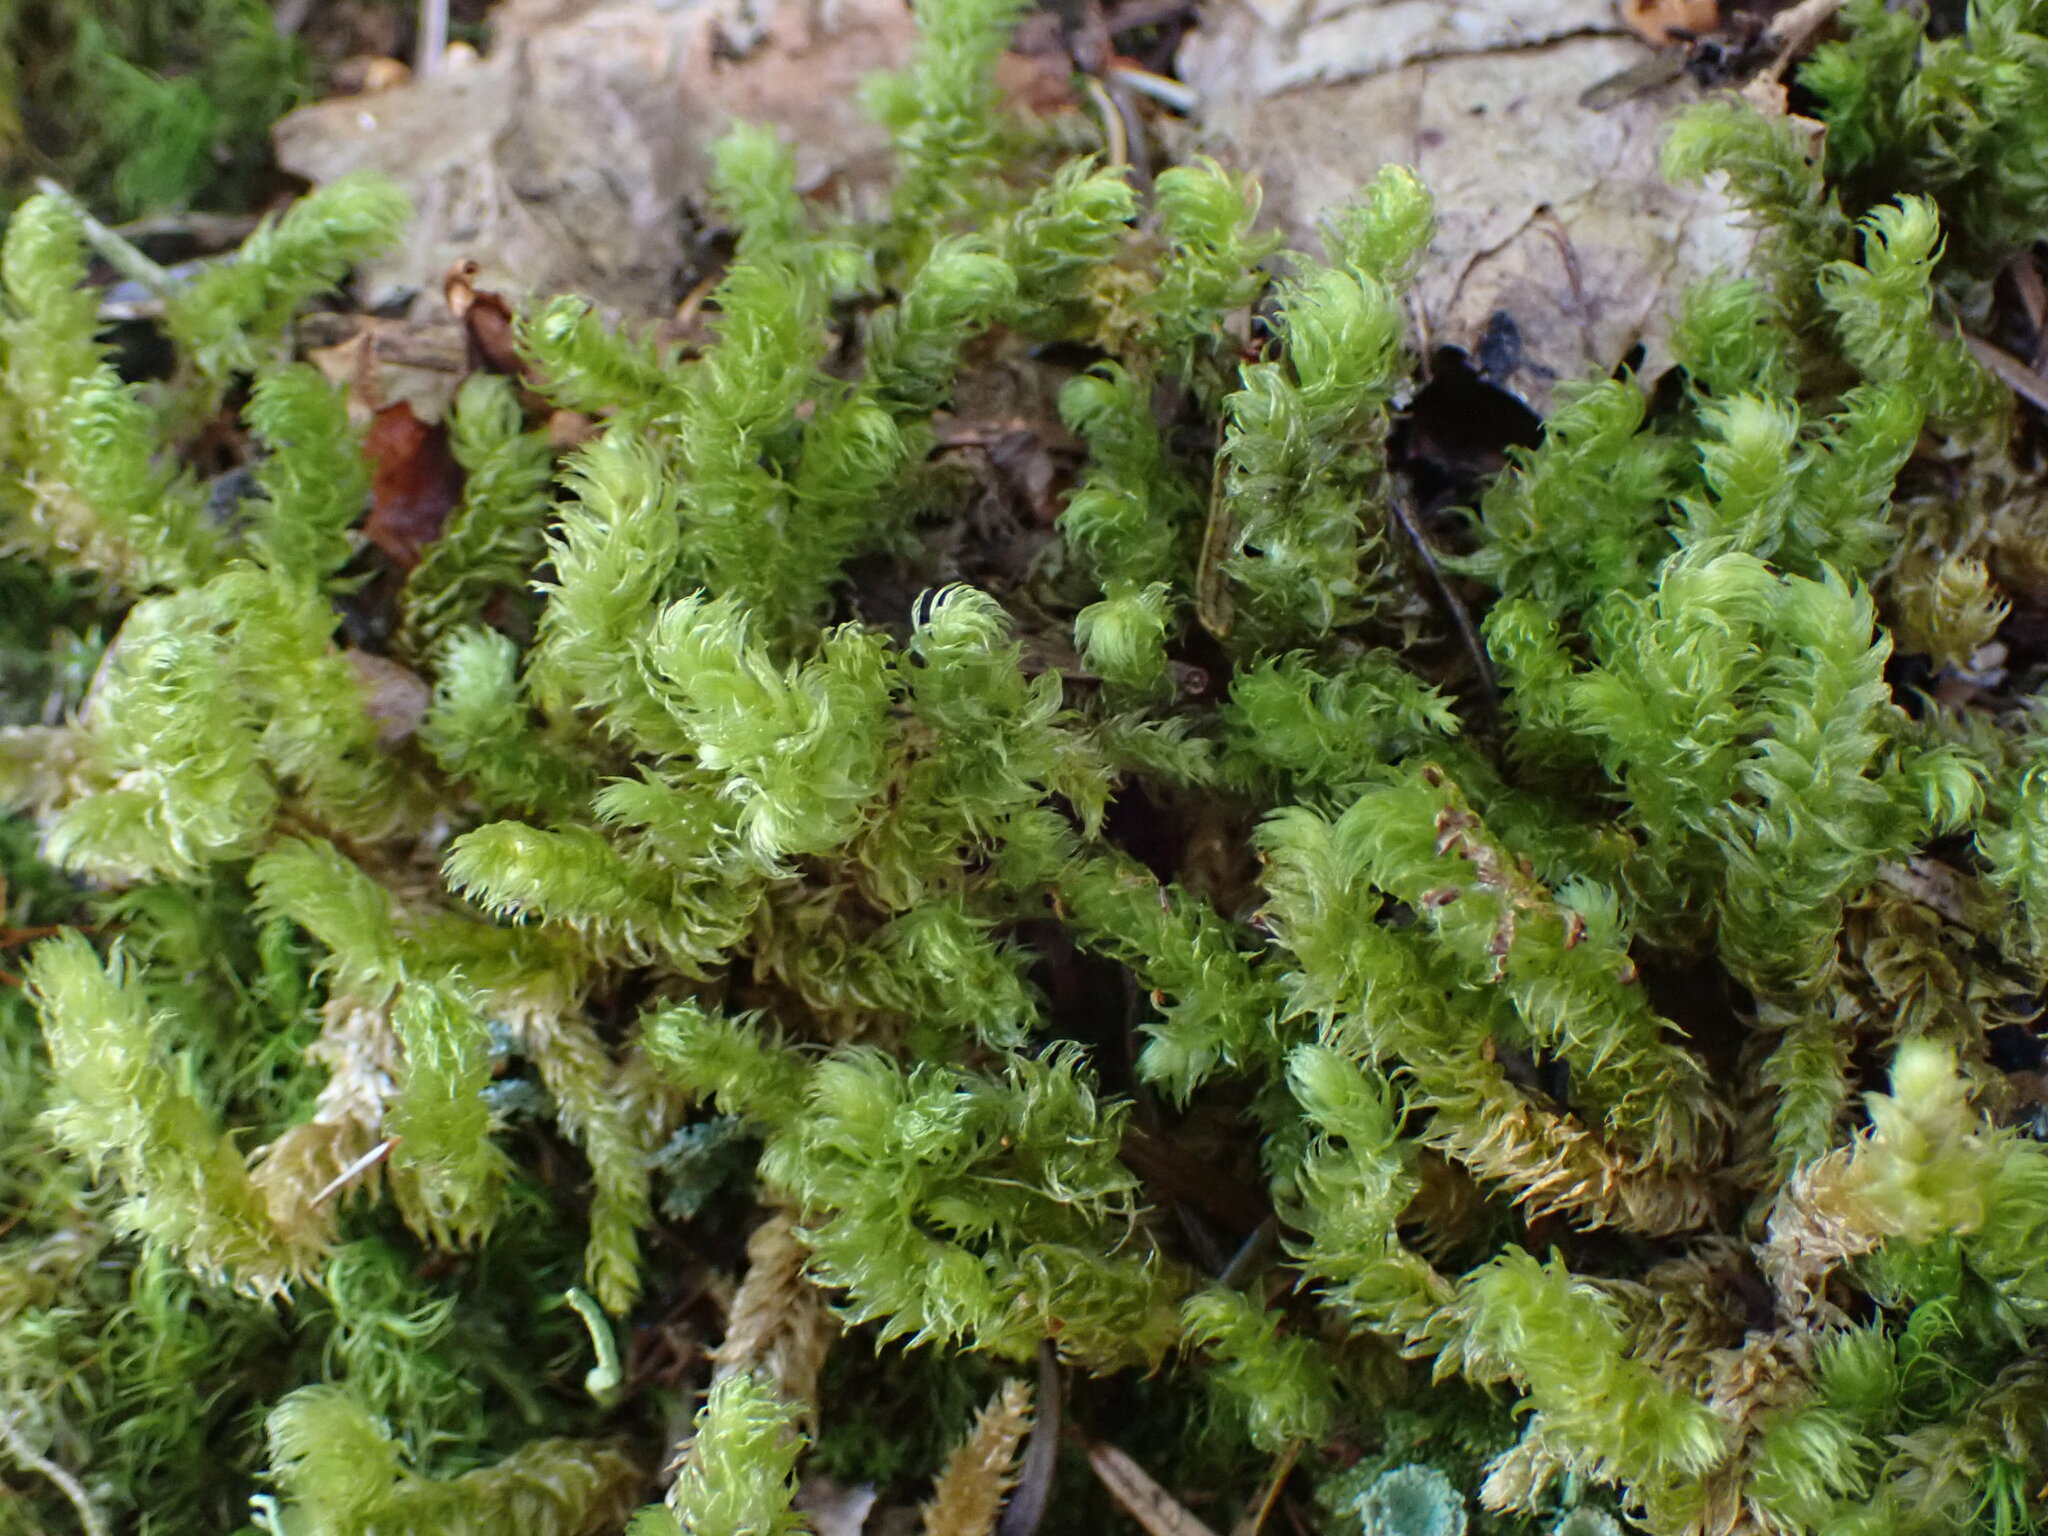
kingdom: Plantae
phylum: Bryophyta
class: Bryopsida
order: Hypnales
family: Hylocomiaceae
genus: Rhytidiopsis
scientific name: Rhytidiopsis robusta
